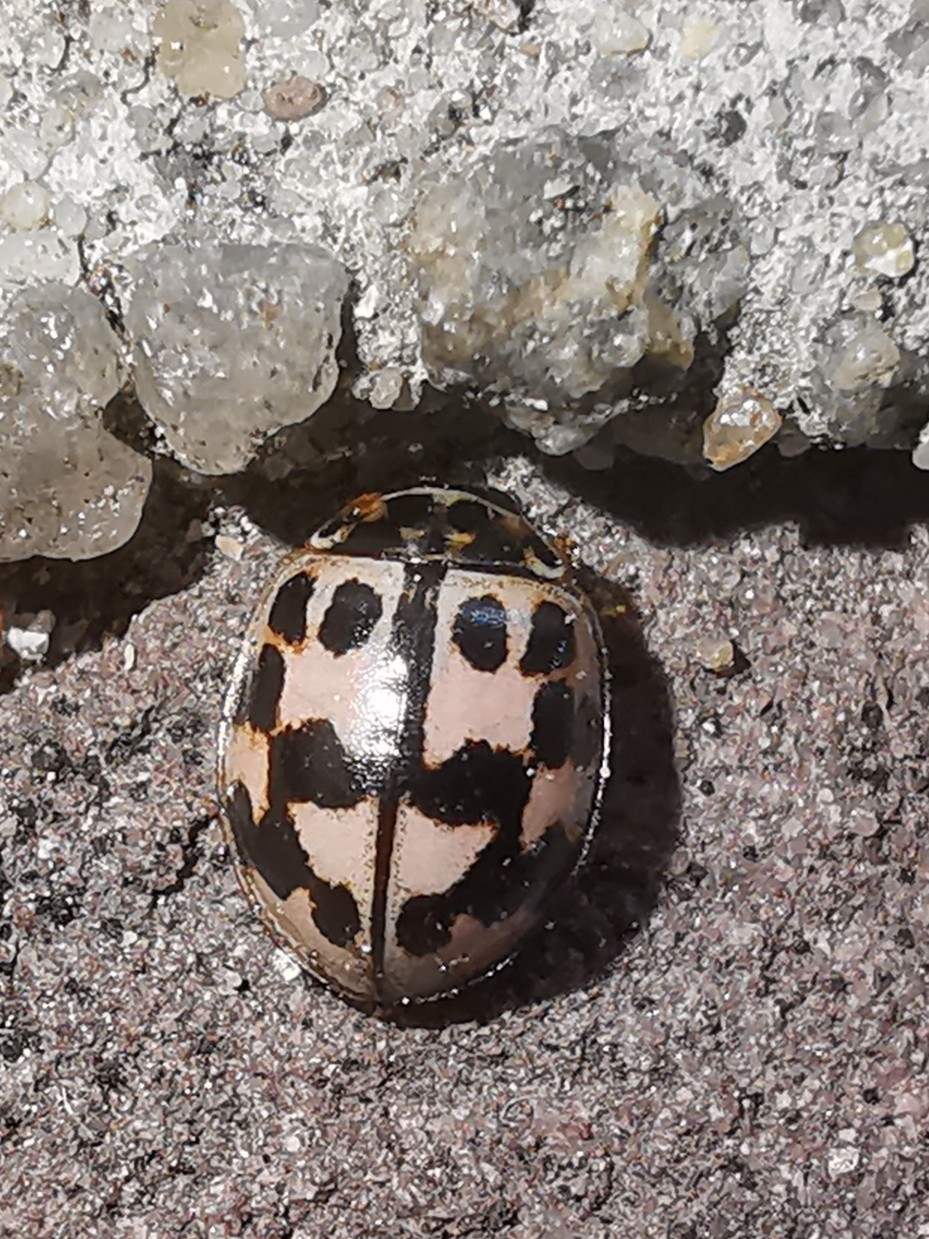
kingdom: Animalia
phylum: Arthropoda
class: Insecta
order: Coleoptera
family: Coccinellidae
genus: Oenopia
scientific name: Oenopia conglobata
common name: Ladybird beetle
